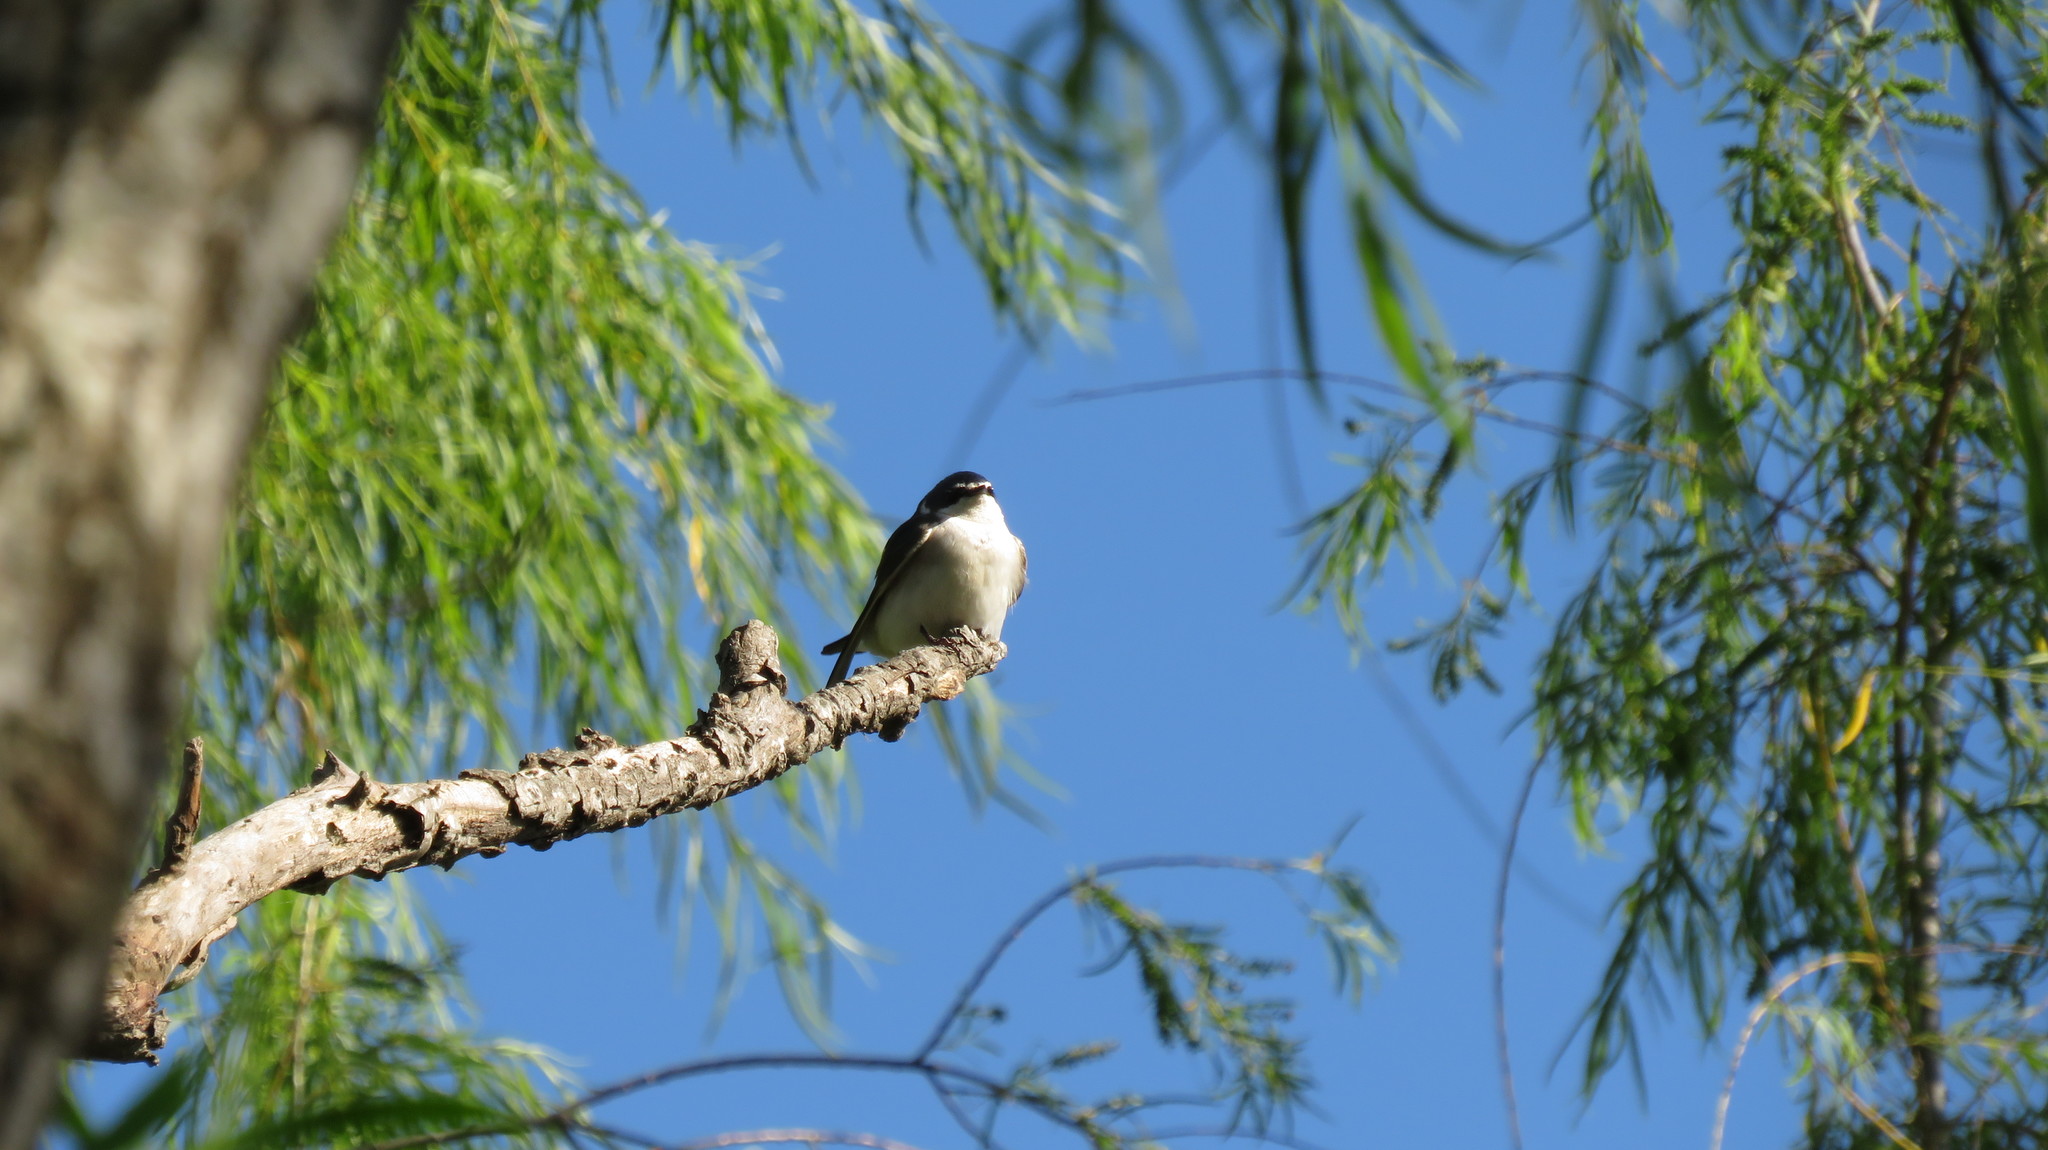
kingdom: Animalia
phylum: Chordata
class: Aves
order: Passeriformes
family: Hirundinidae
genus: Tachycineta
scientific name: Tachycineta leucorrhoa
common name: White-rumped swallow
